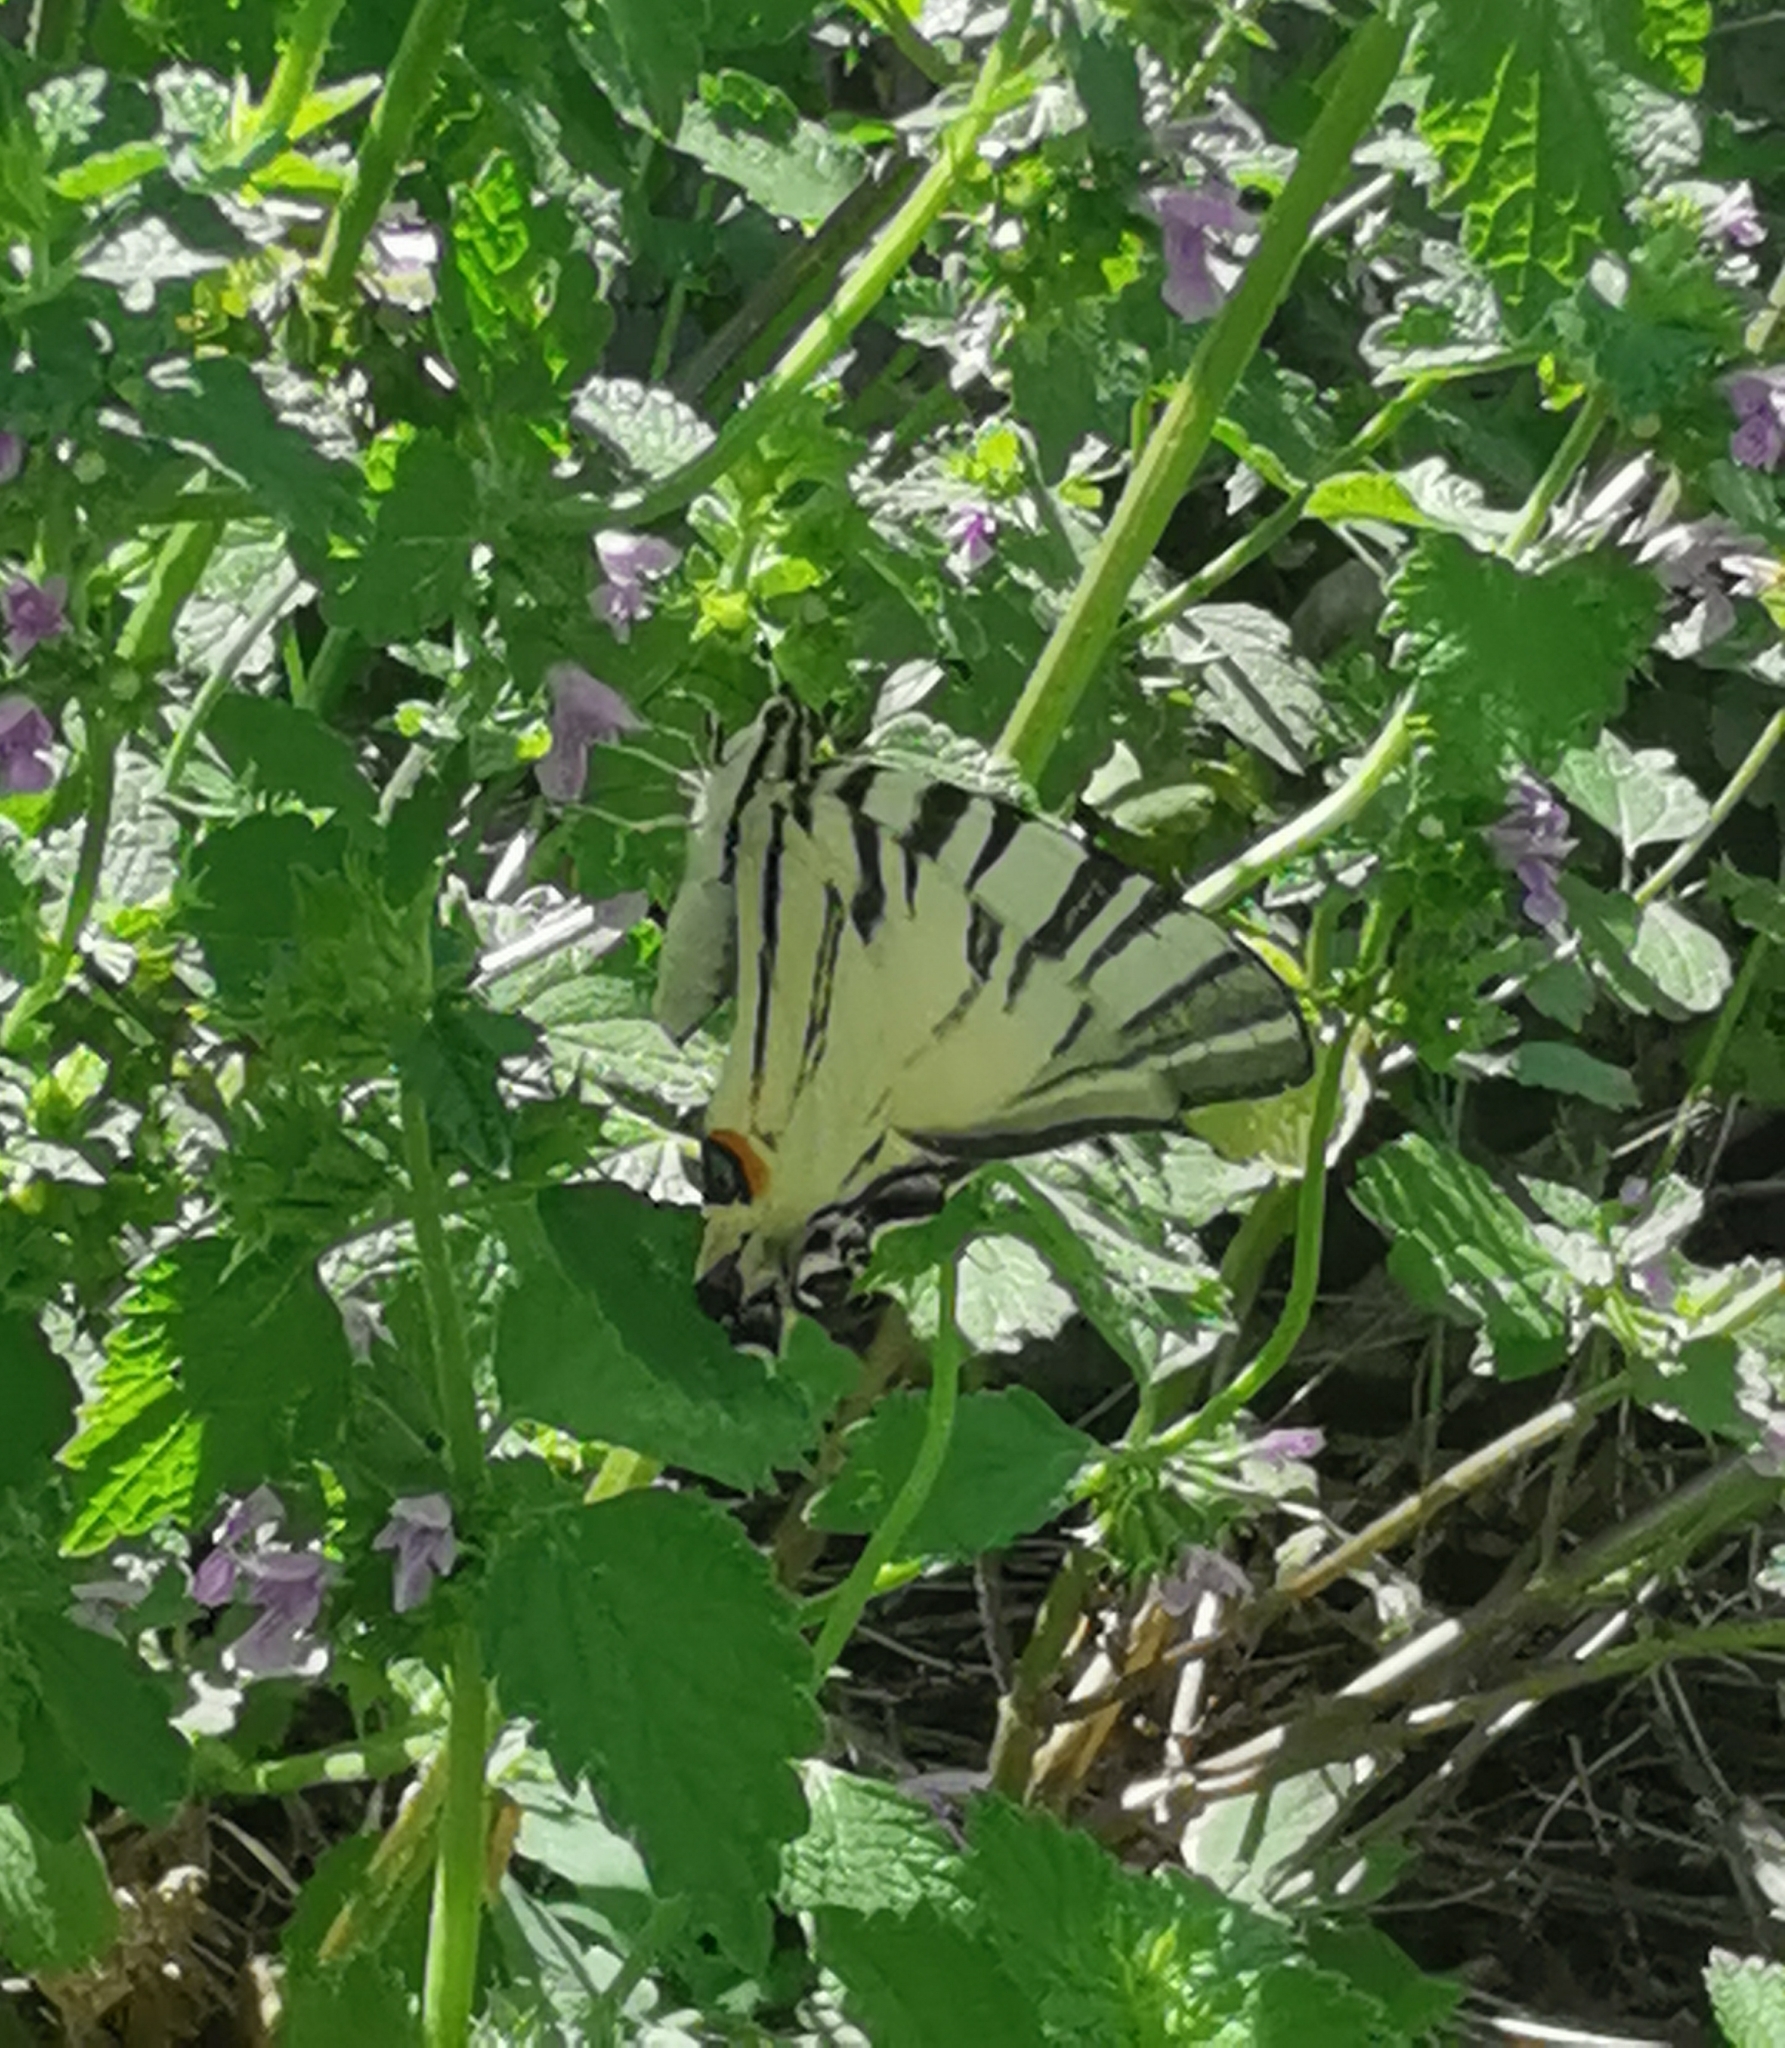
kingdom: Animalia
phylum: Arthropoda
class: Insecta
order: Lepidoptera
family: Papilionidae
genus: Iphiclides
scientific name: Iphiclides podalirius
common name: Scarce swallowtail
